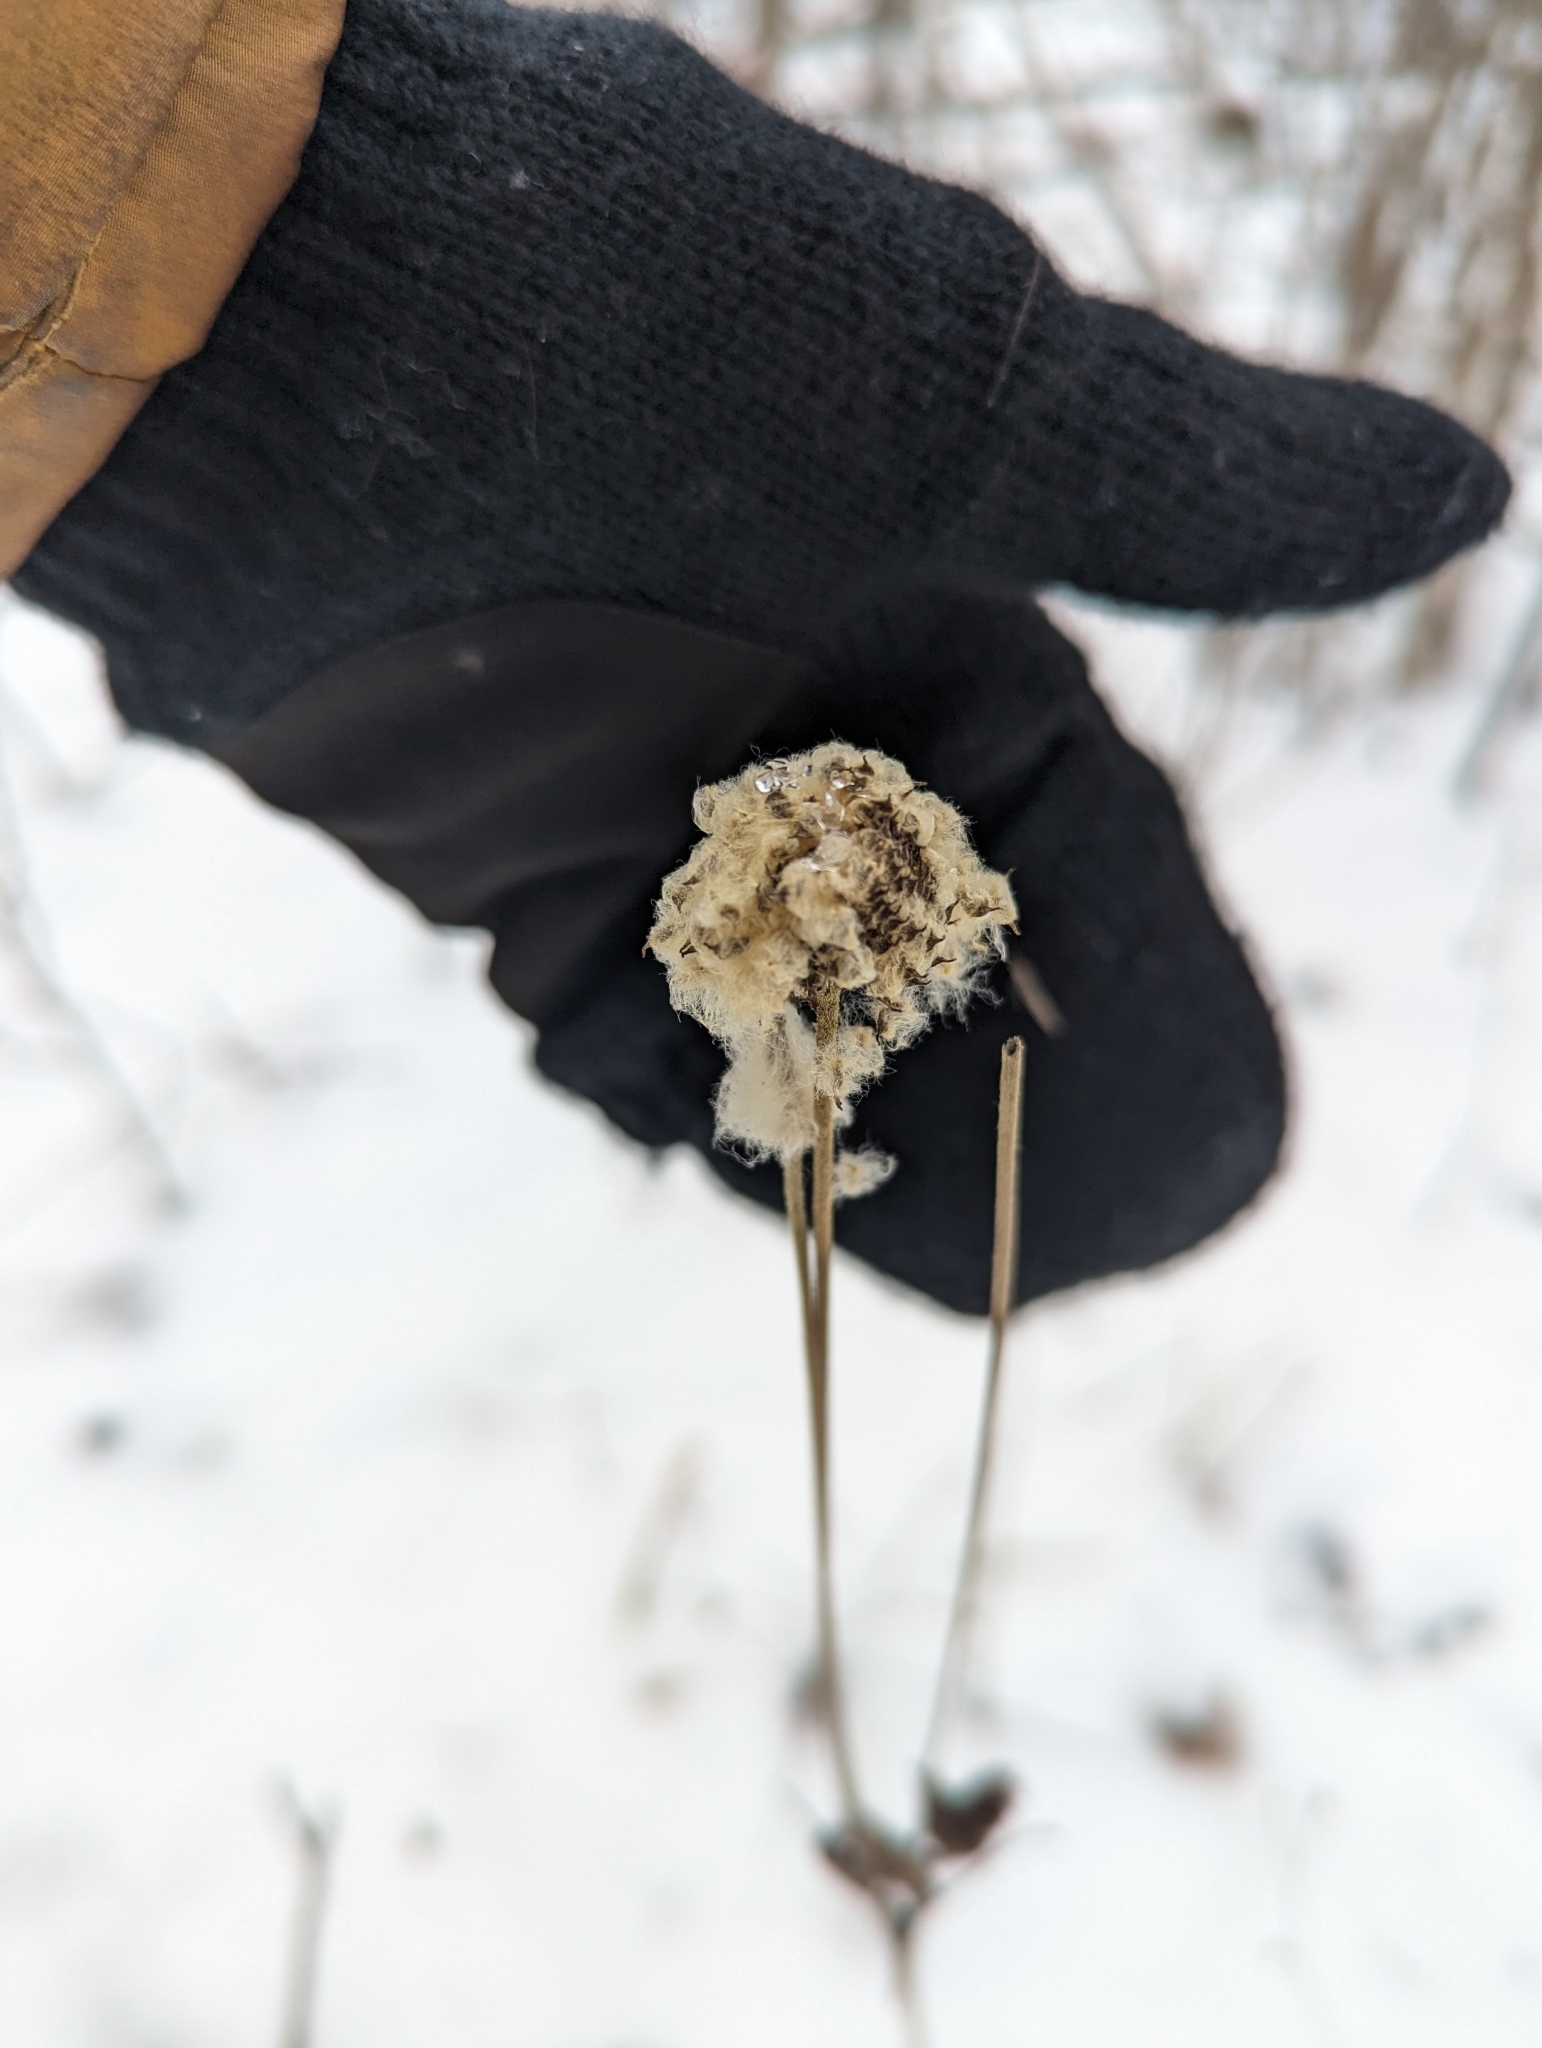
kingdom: Plantae
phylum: Tracheophyta
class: Magnoliopsida
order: Ranunculales
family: Ranunculaceae
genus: Anemone
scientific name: Anemone virginiana
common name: Tall anemone
